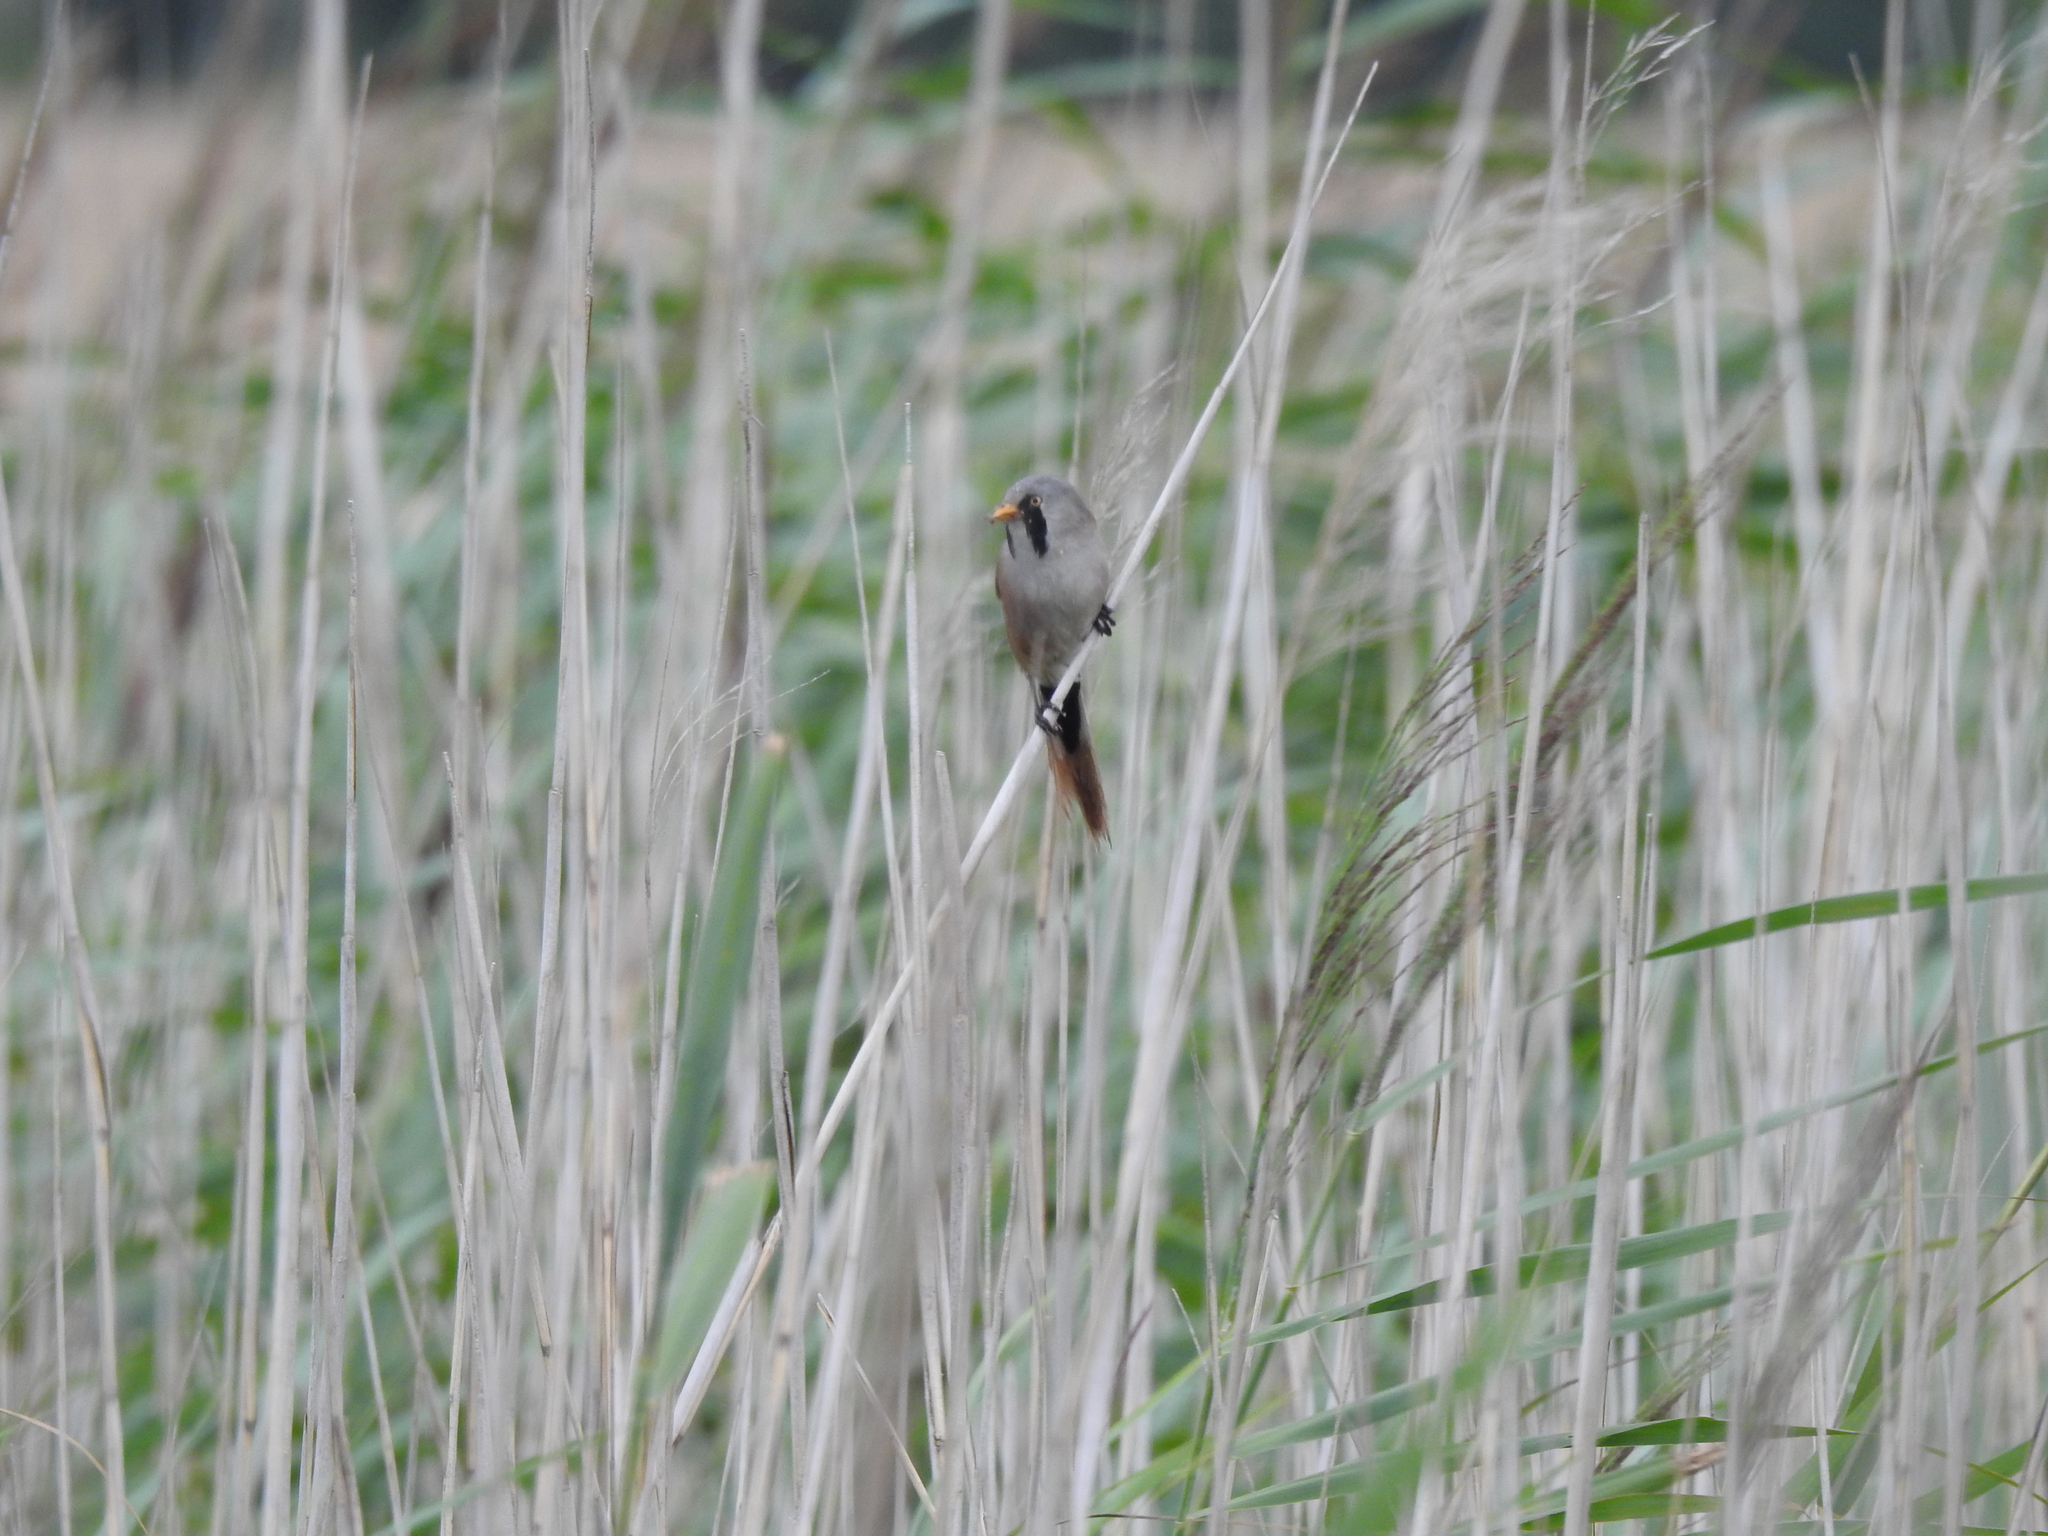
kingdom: Animalia
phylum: Chordata
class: Aves
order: Passeriformes
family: Panuridae
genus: Panurus
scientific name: Panurus biarmicus
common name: Bearded reedling
